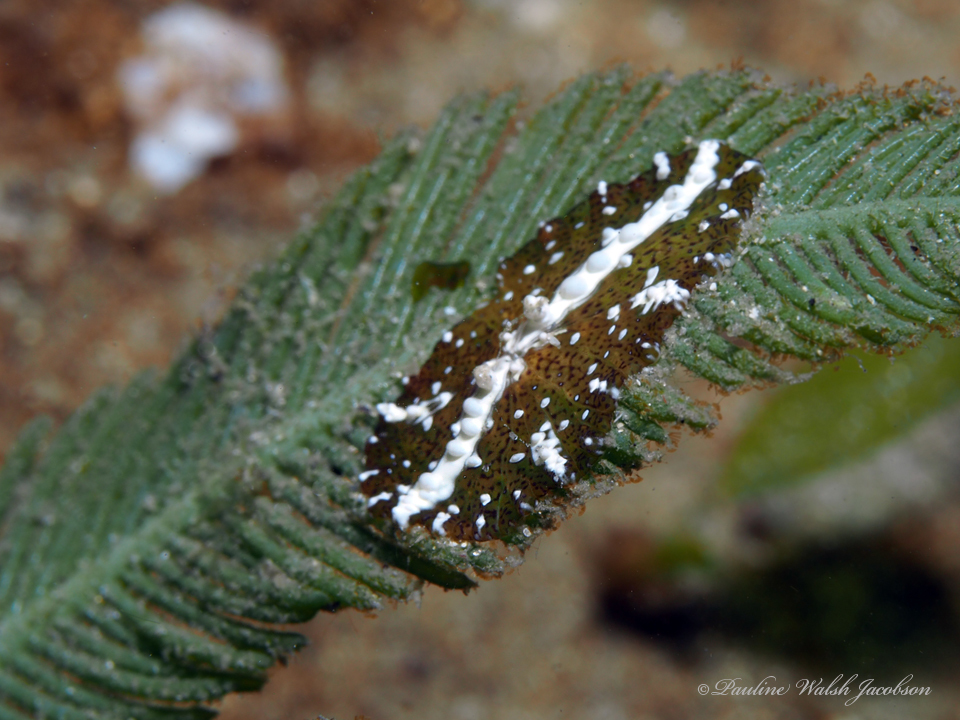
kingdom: Animalia
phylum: Cnidaria
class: Anthozoa
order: Actiniaria
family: Boloceroididae
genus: Bunodeopsis
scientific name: Bunodeopsis globulifera
